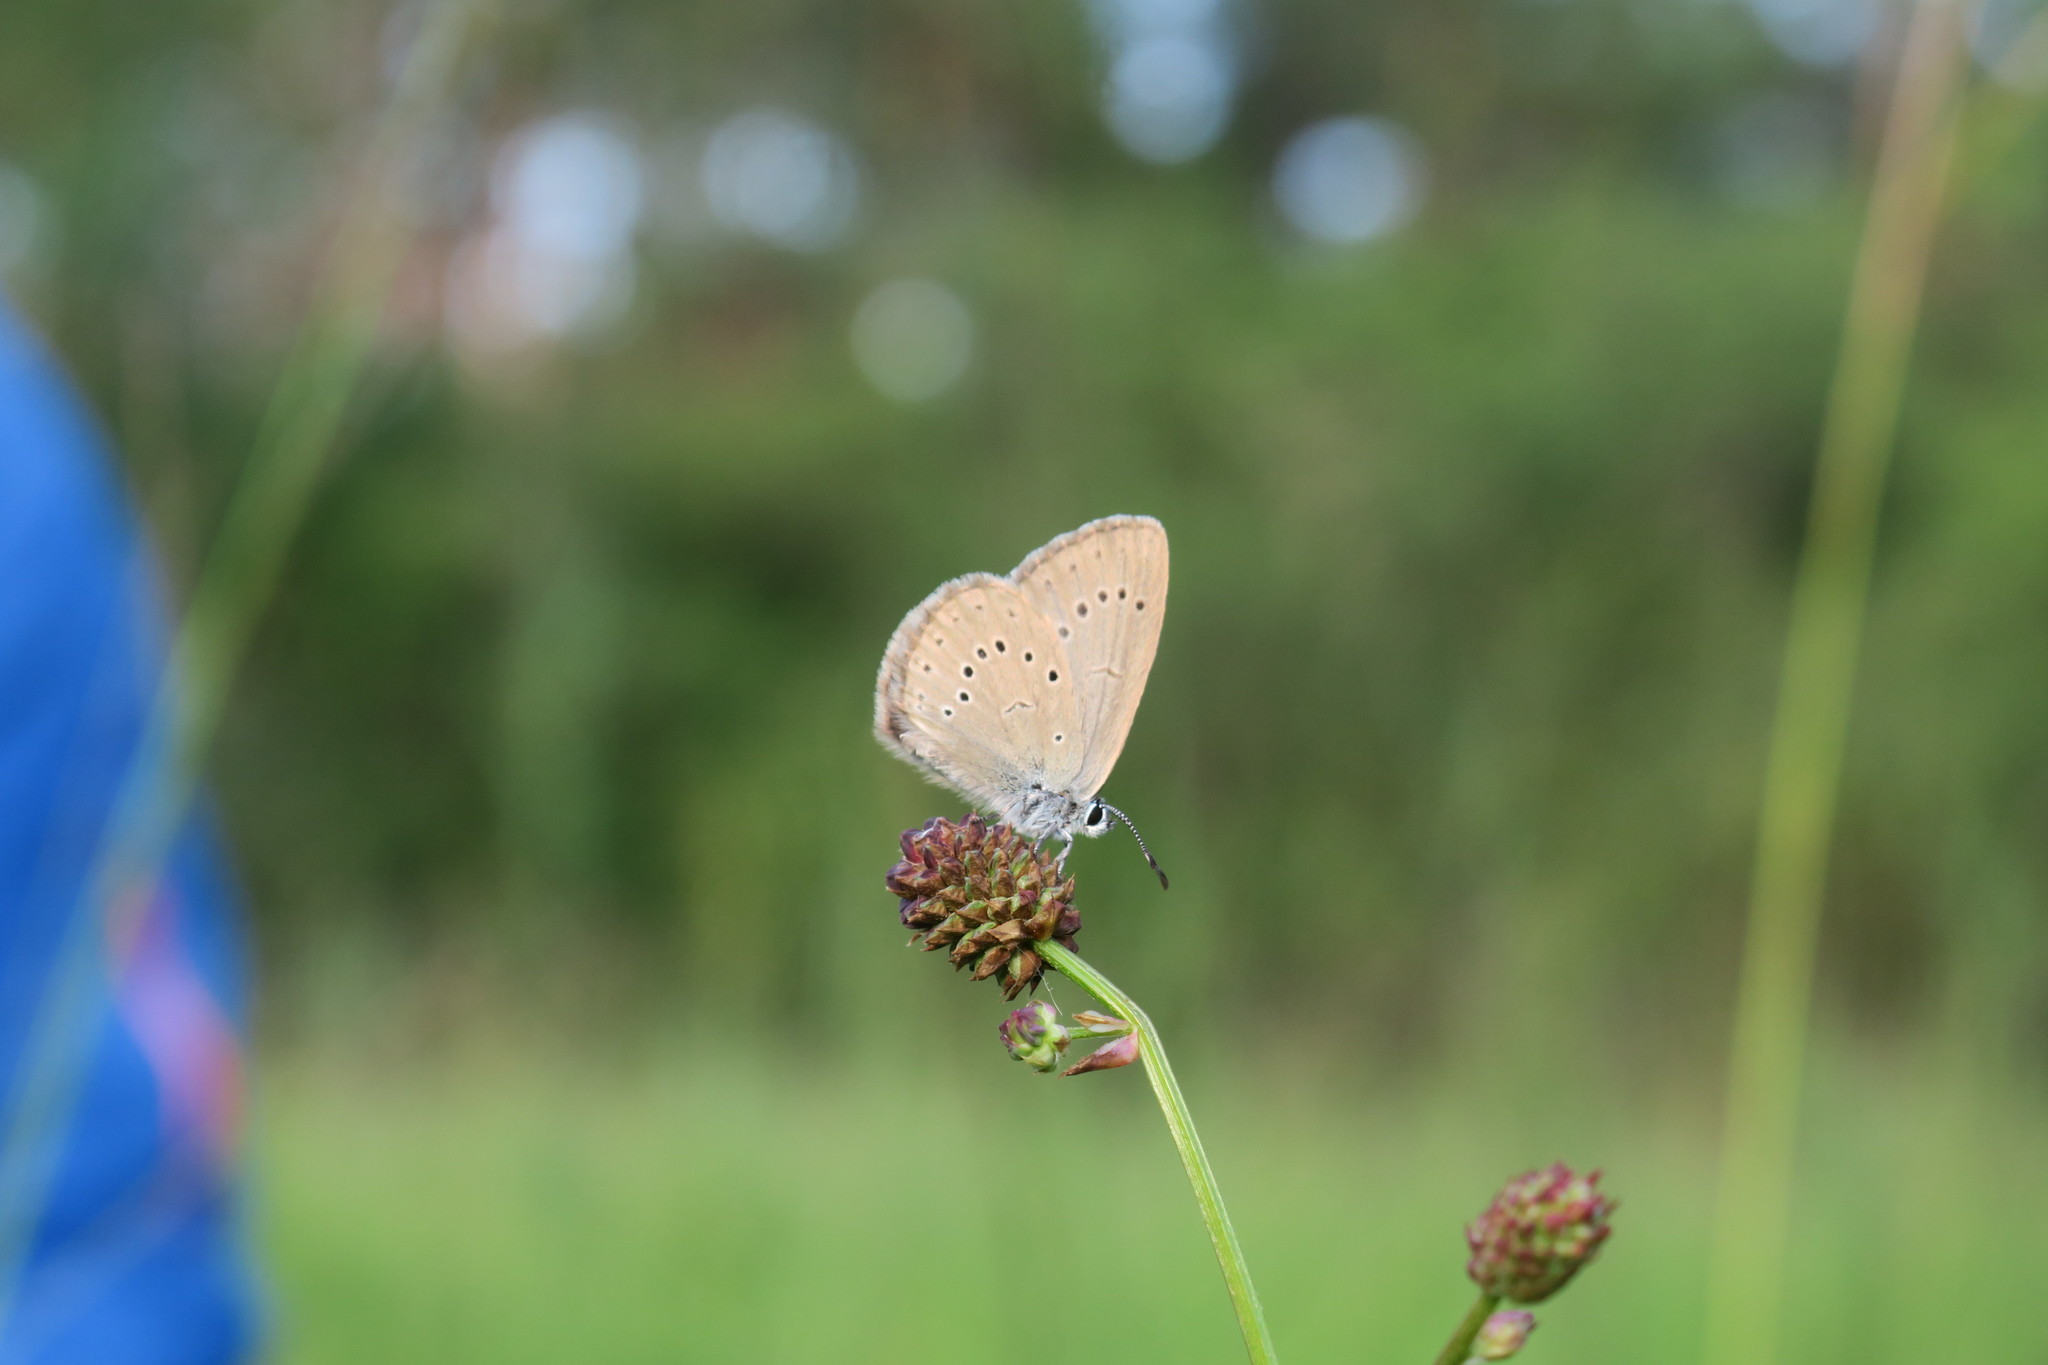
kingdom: Animalia
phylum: Arthropoda
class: Insecta
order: Lepidoptera
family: Lycaenidae
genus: Phengaris
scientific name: Phengaris teleius
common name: Scarce large blue
